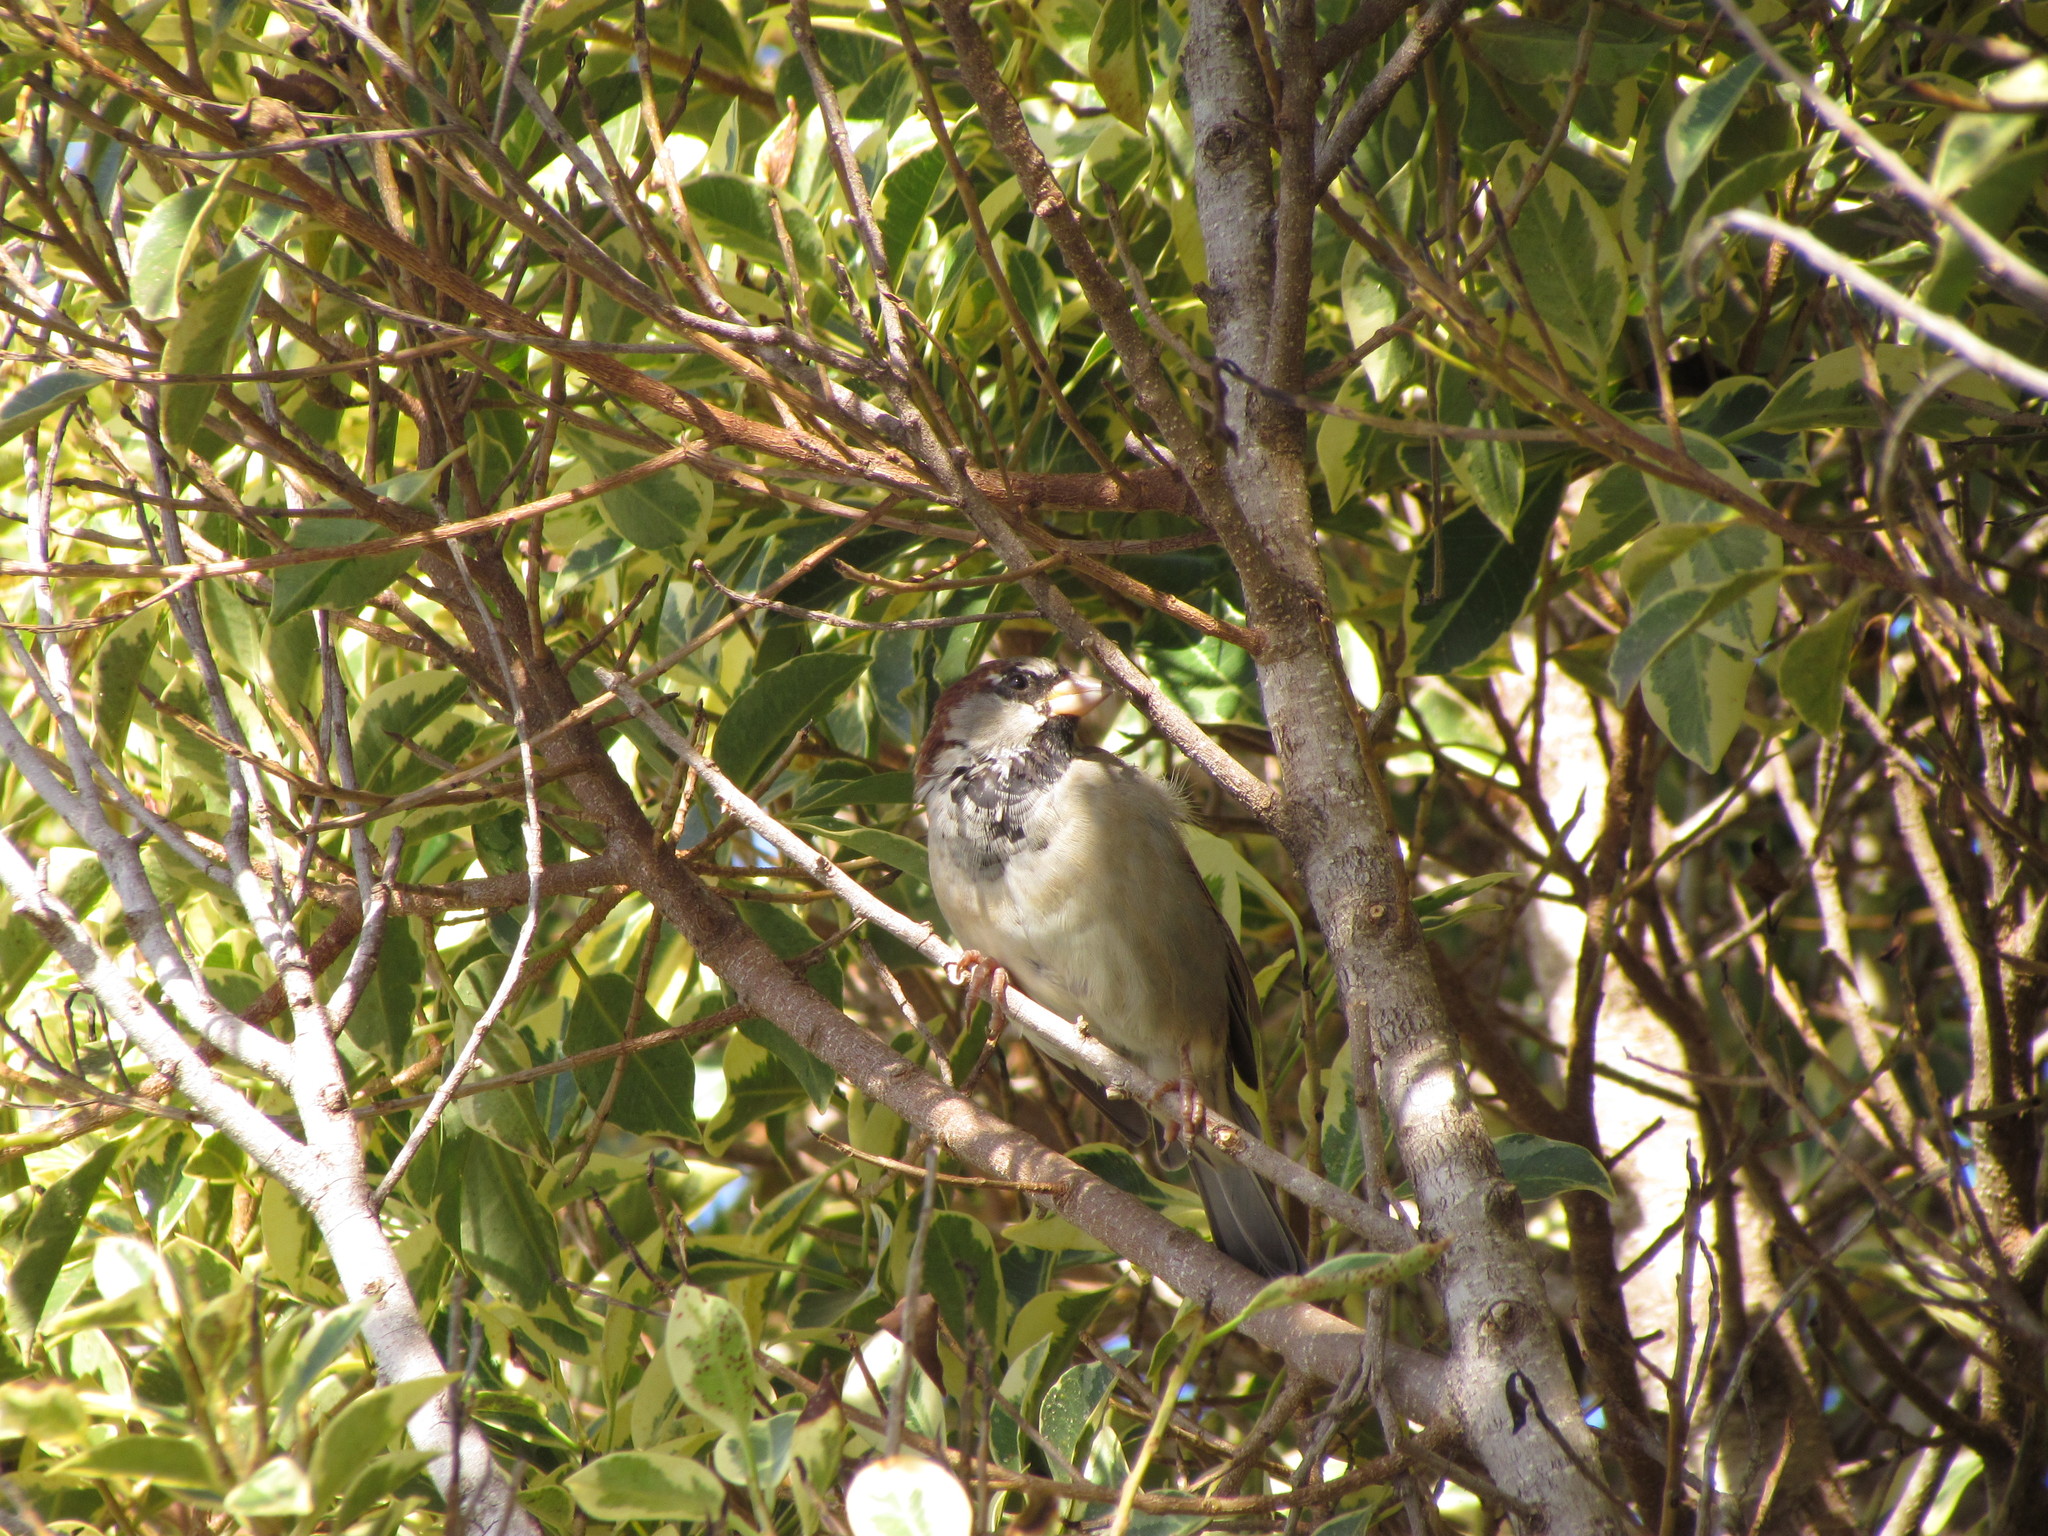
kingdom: Animalia
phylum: Chordata
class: Aves
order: Passeriformes
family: Passeridae
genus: Passer
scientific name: Passer domesticus
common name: House sparrow
